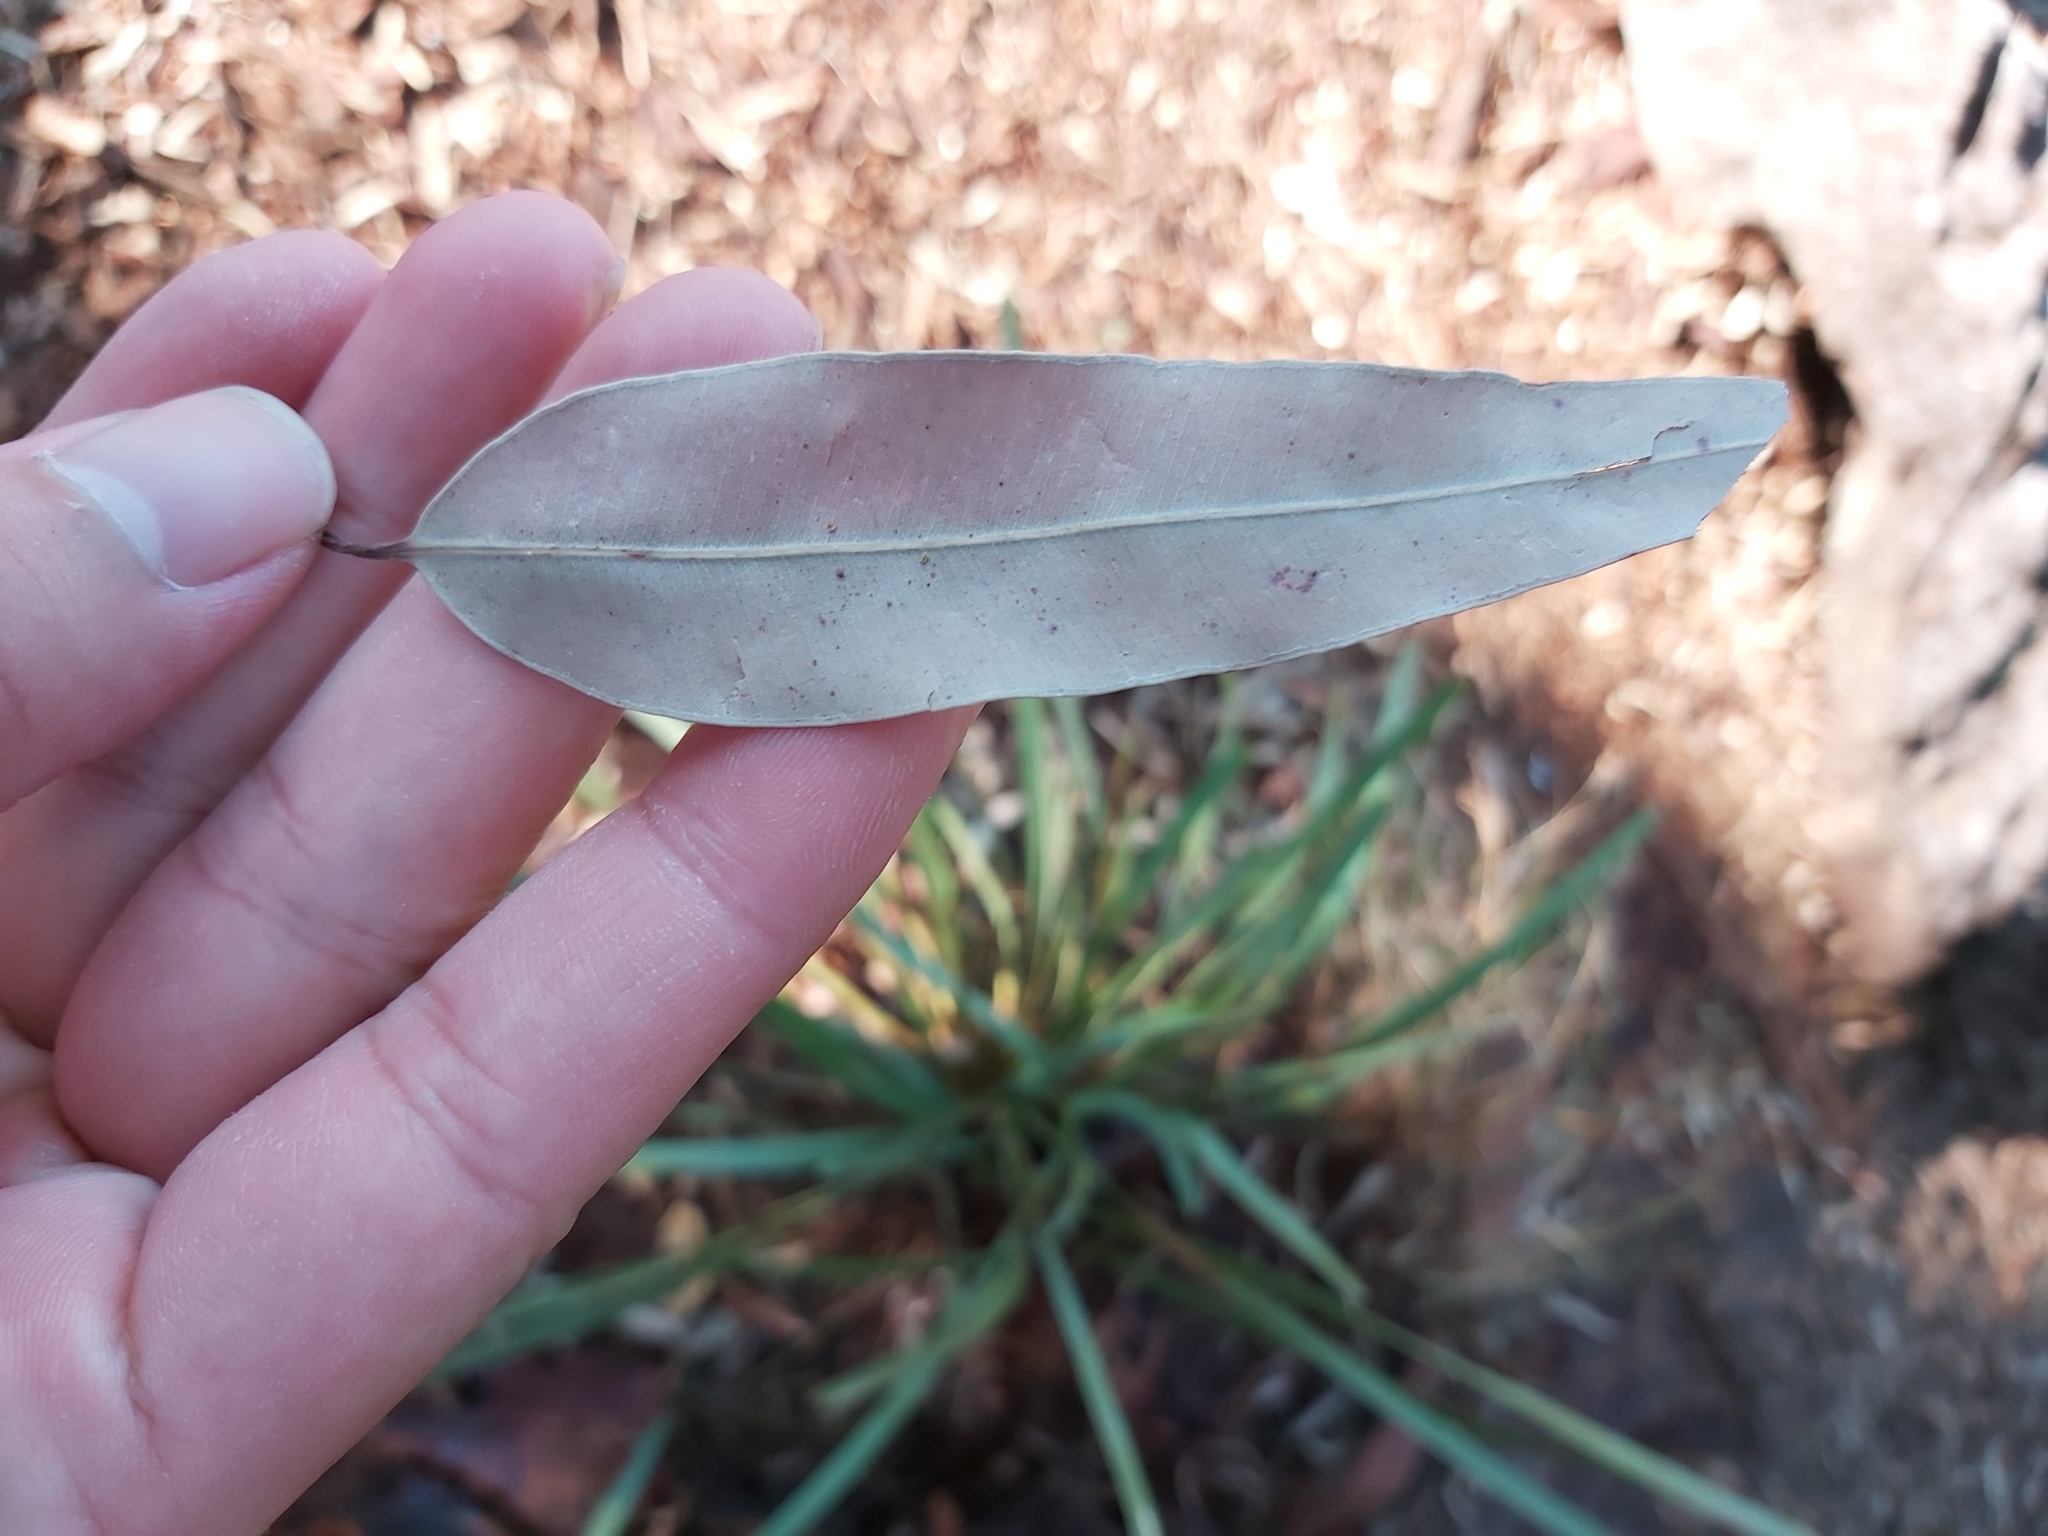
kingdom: Plantae
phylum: Tracheophyta
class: Magnoliopsida
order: Myrtales
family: Myrtaceae
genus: Angophora
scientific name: Angophora costata
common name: Gum myrtle
